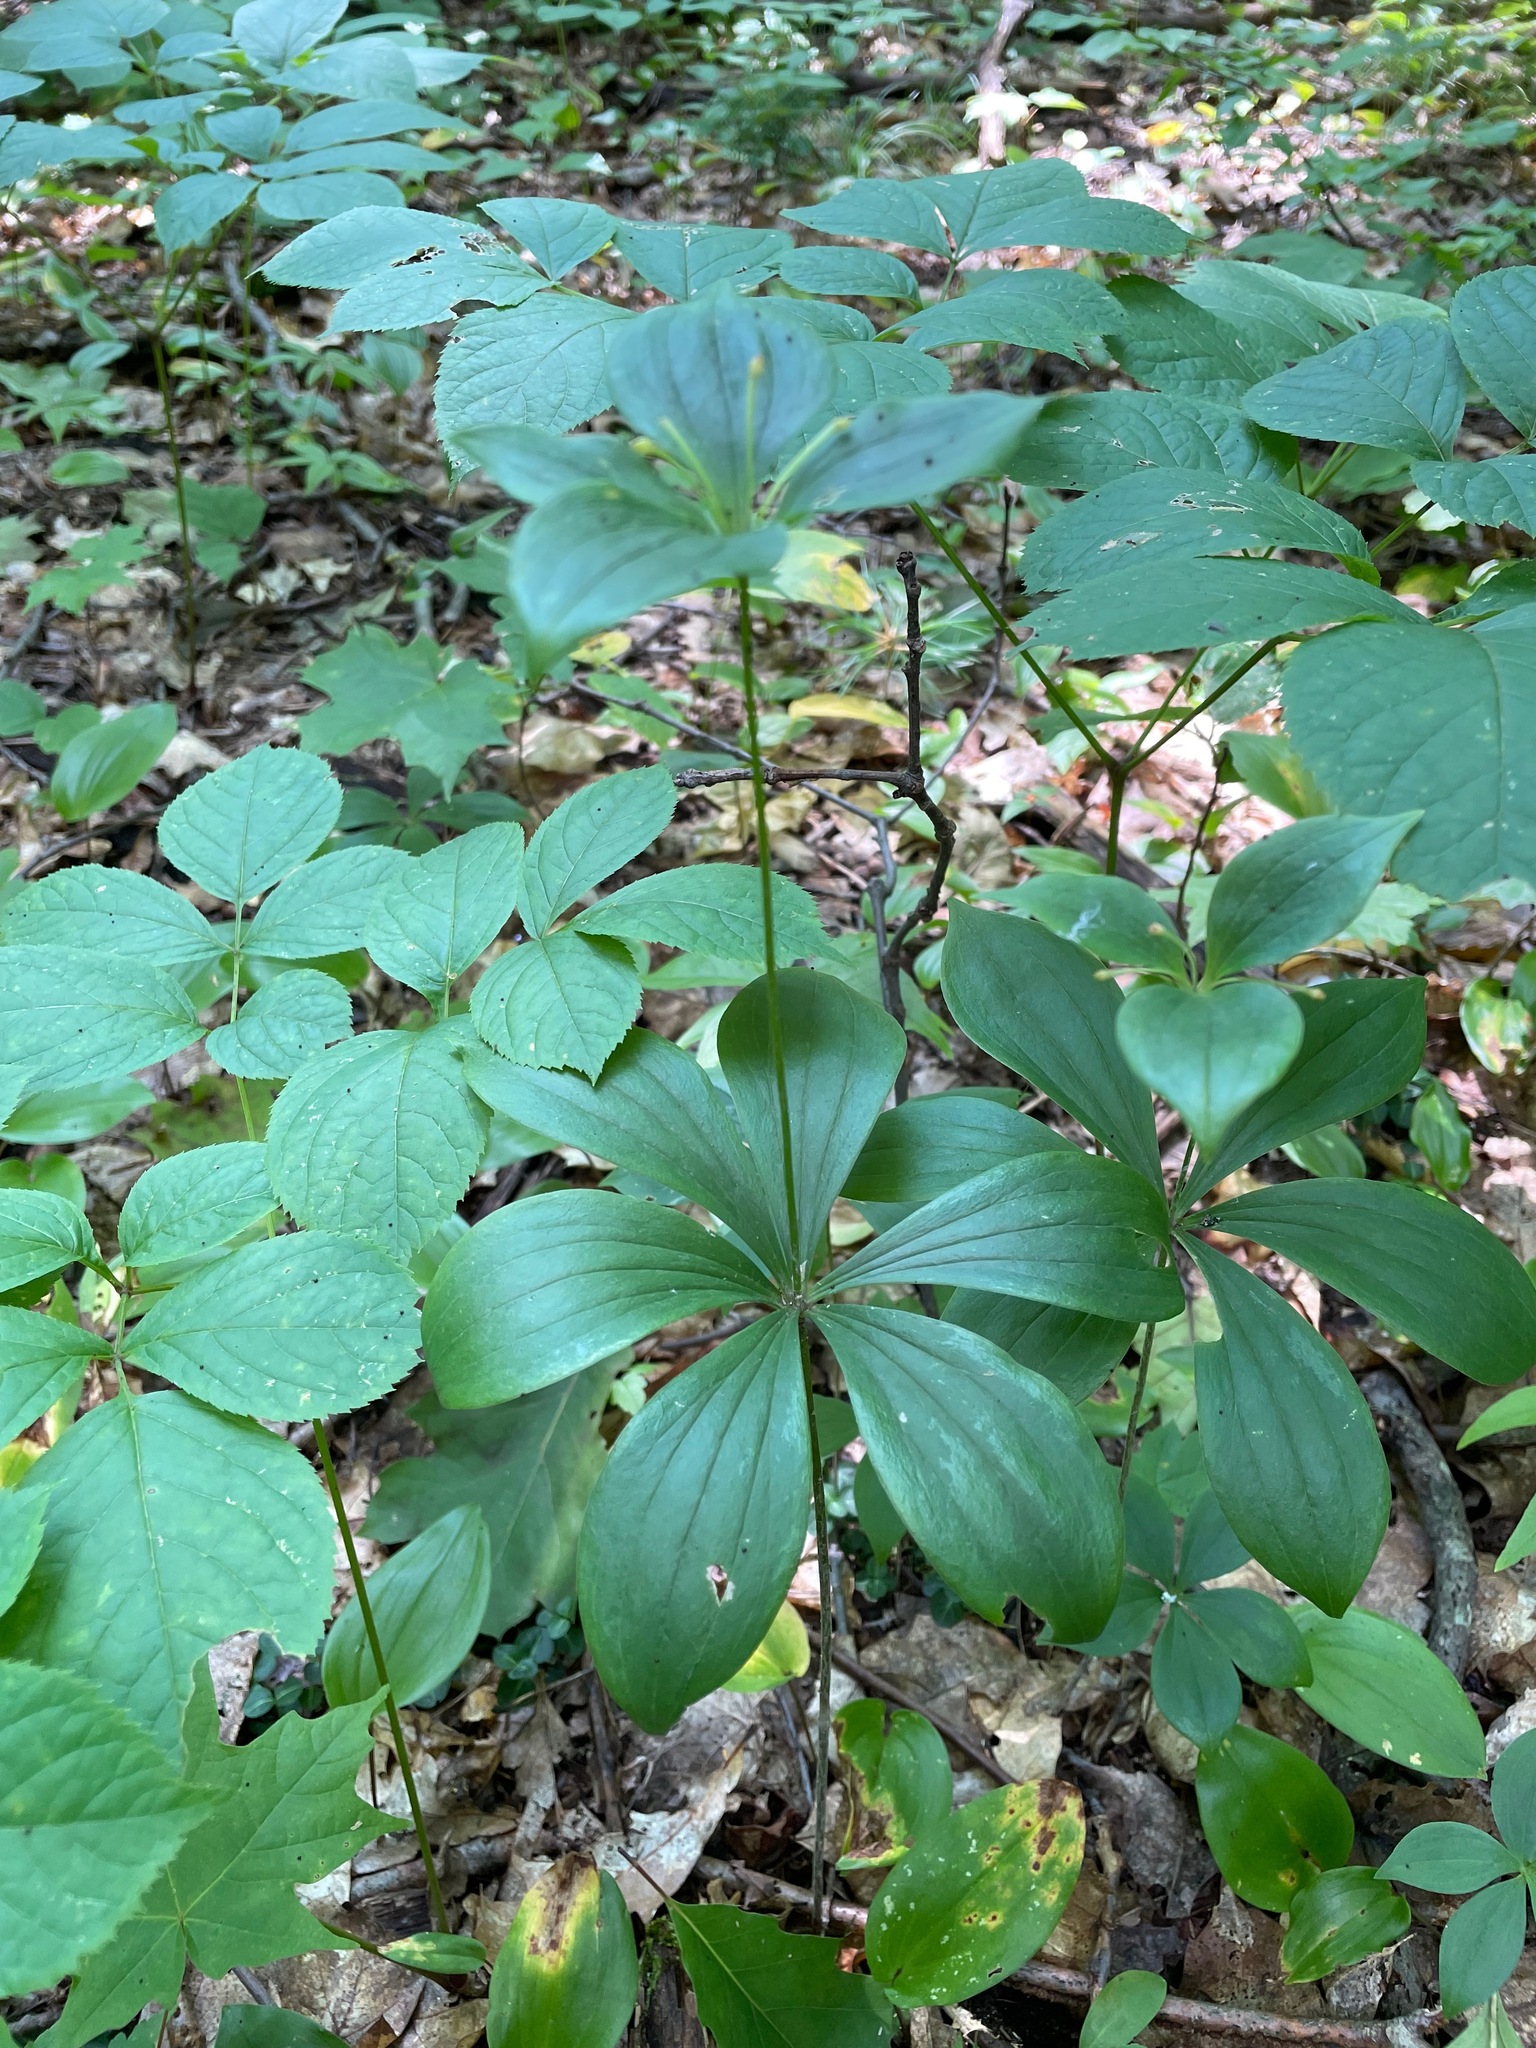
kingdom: Plantae
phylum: Tracheophyta
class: Liliopsida
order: Liliales
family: Liliaceae
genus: Medeola
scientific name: Medeola virginiana
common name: Indian cucumber-root
